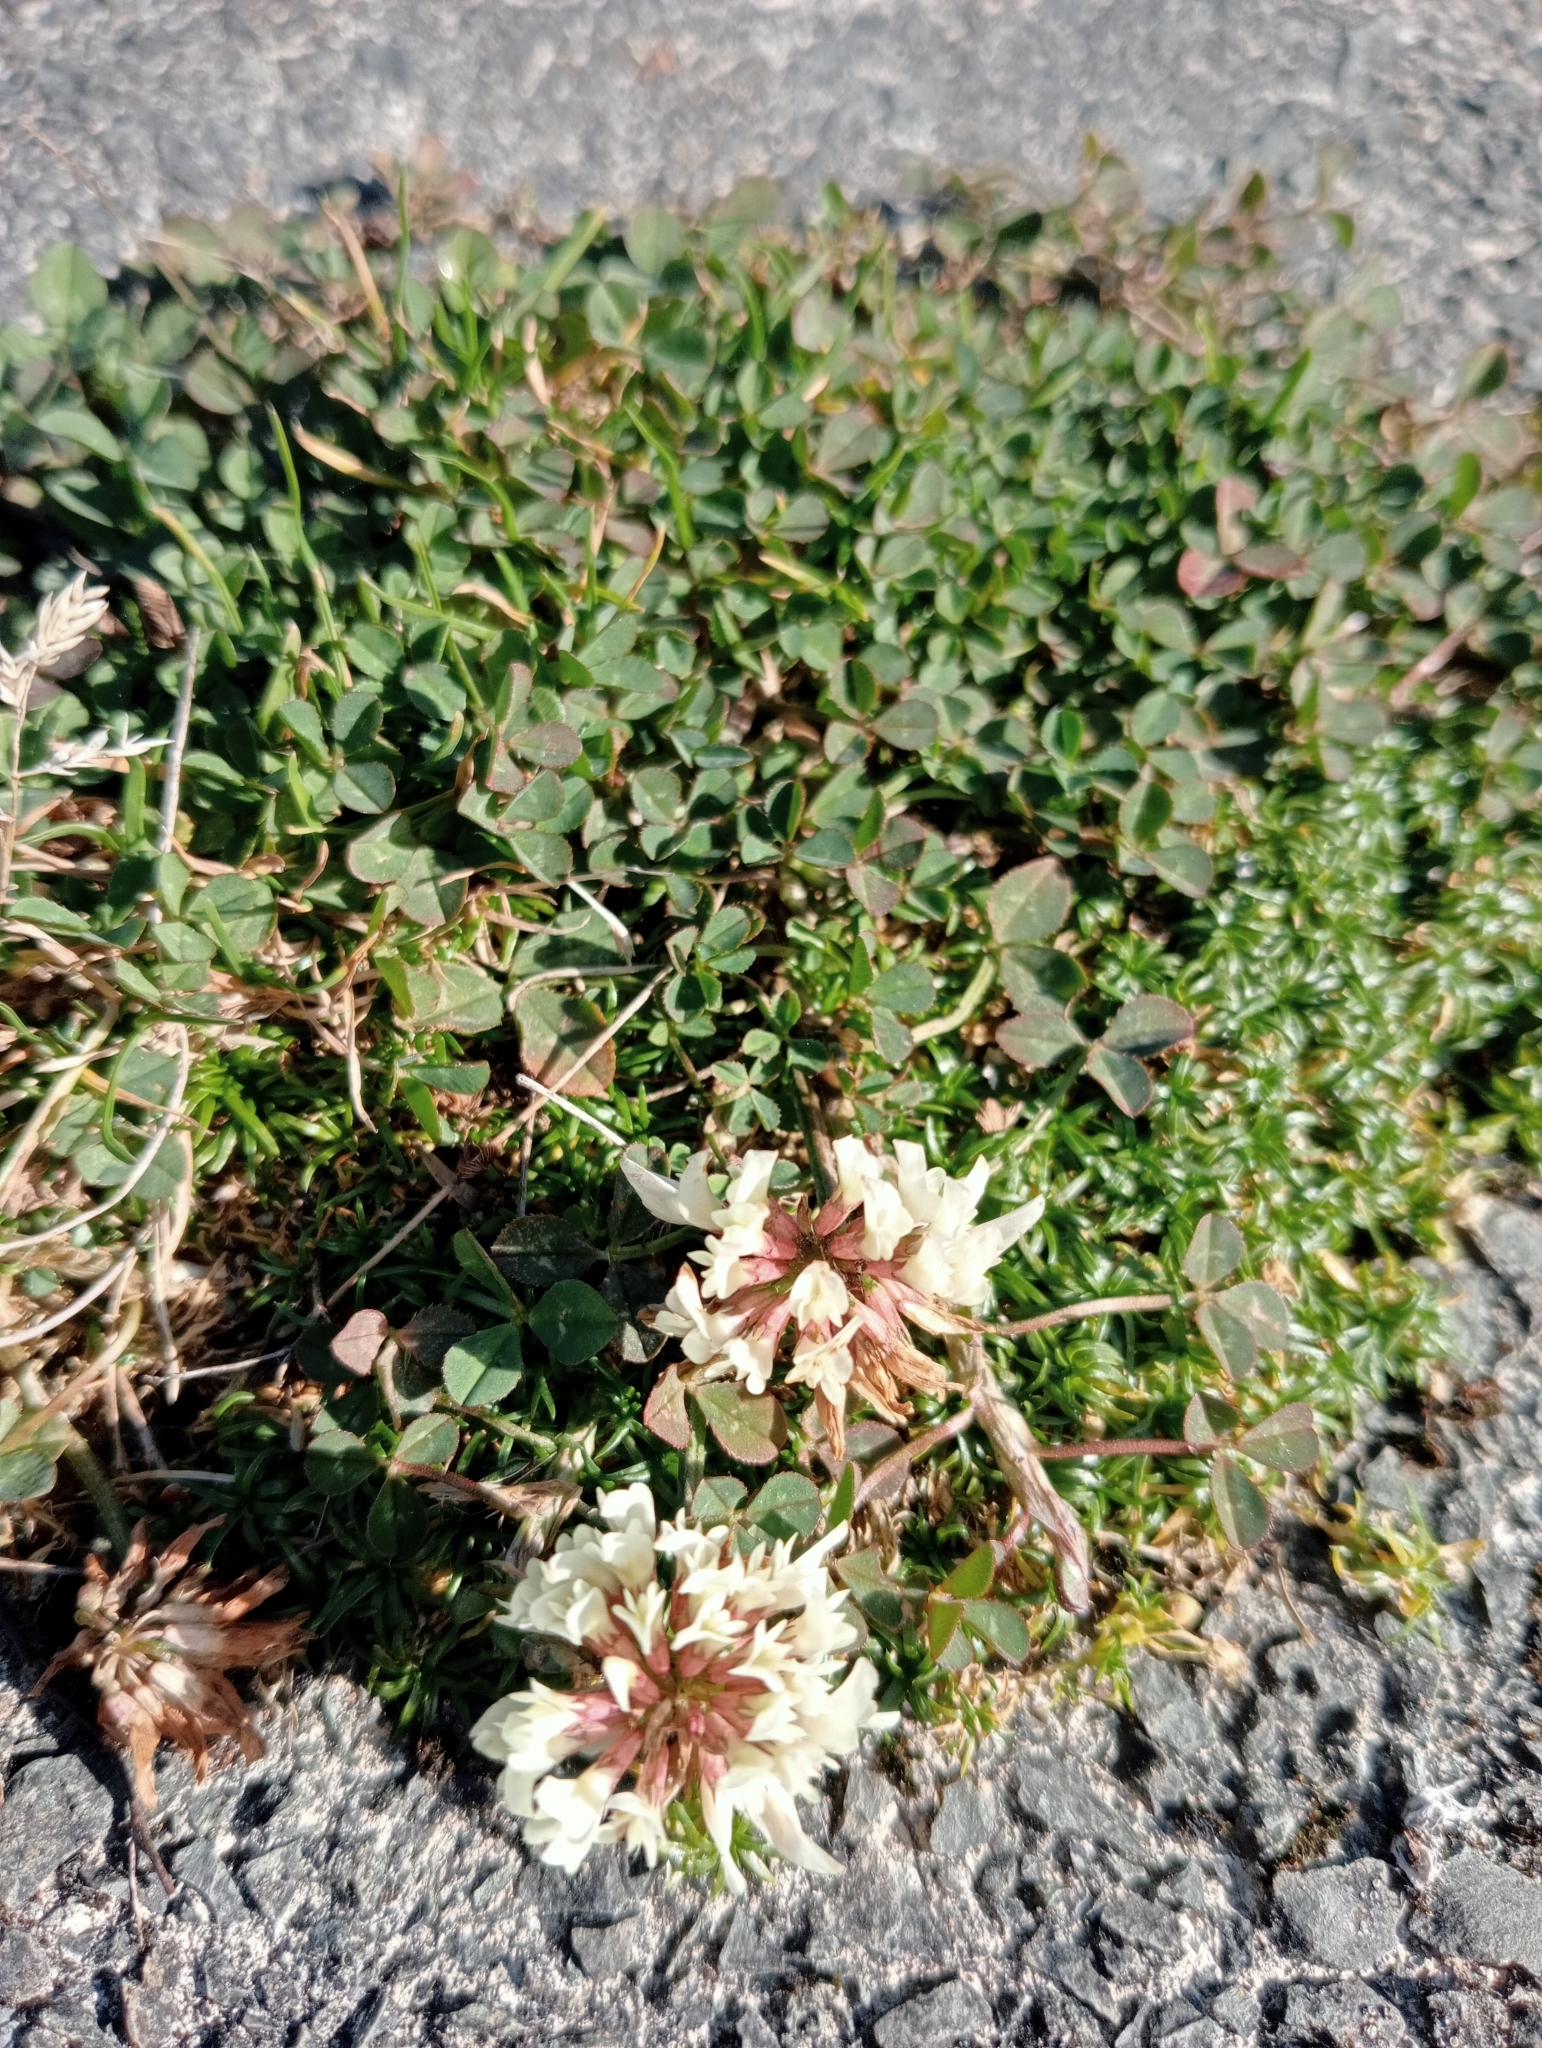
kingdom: Plantae
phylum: Tracheophyta
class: Magnoliopsida
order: Fabales
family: Fabaceae
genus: Trifolium
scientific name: Trifolium repens
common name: White clover
